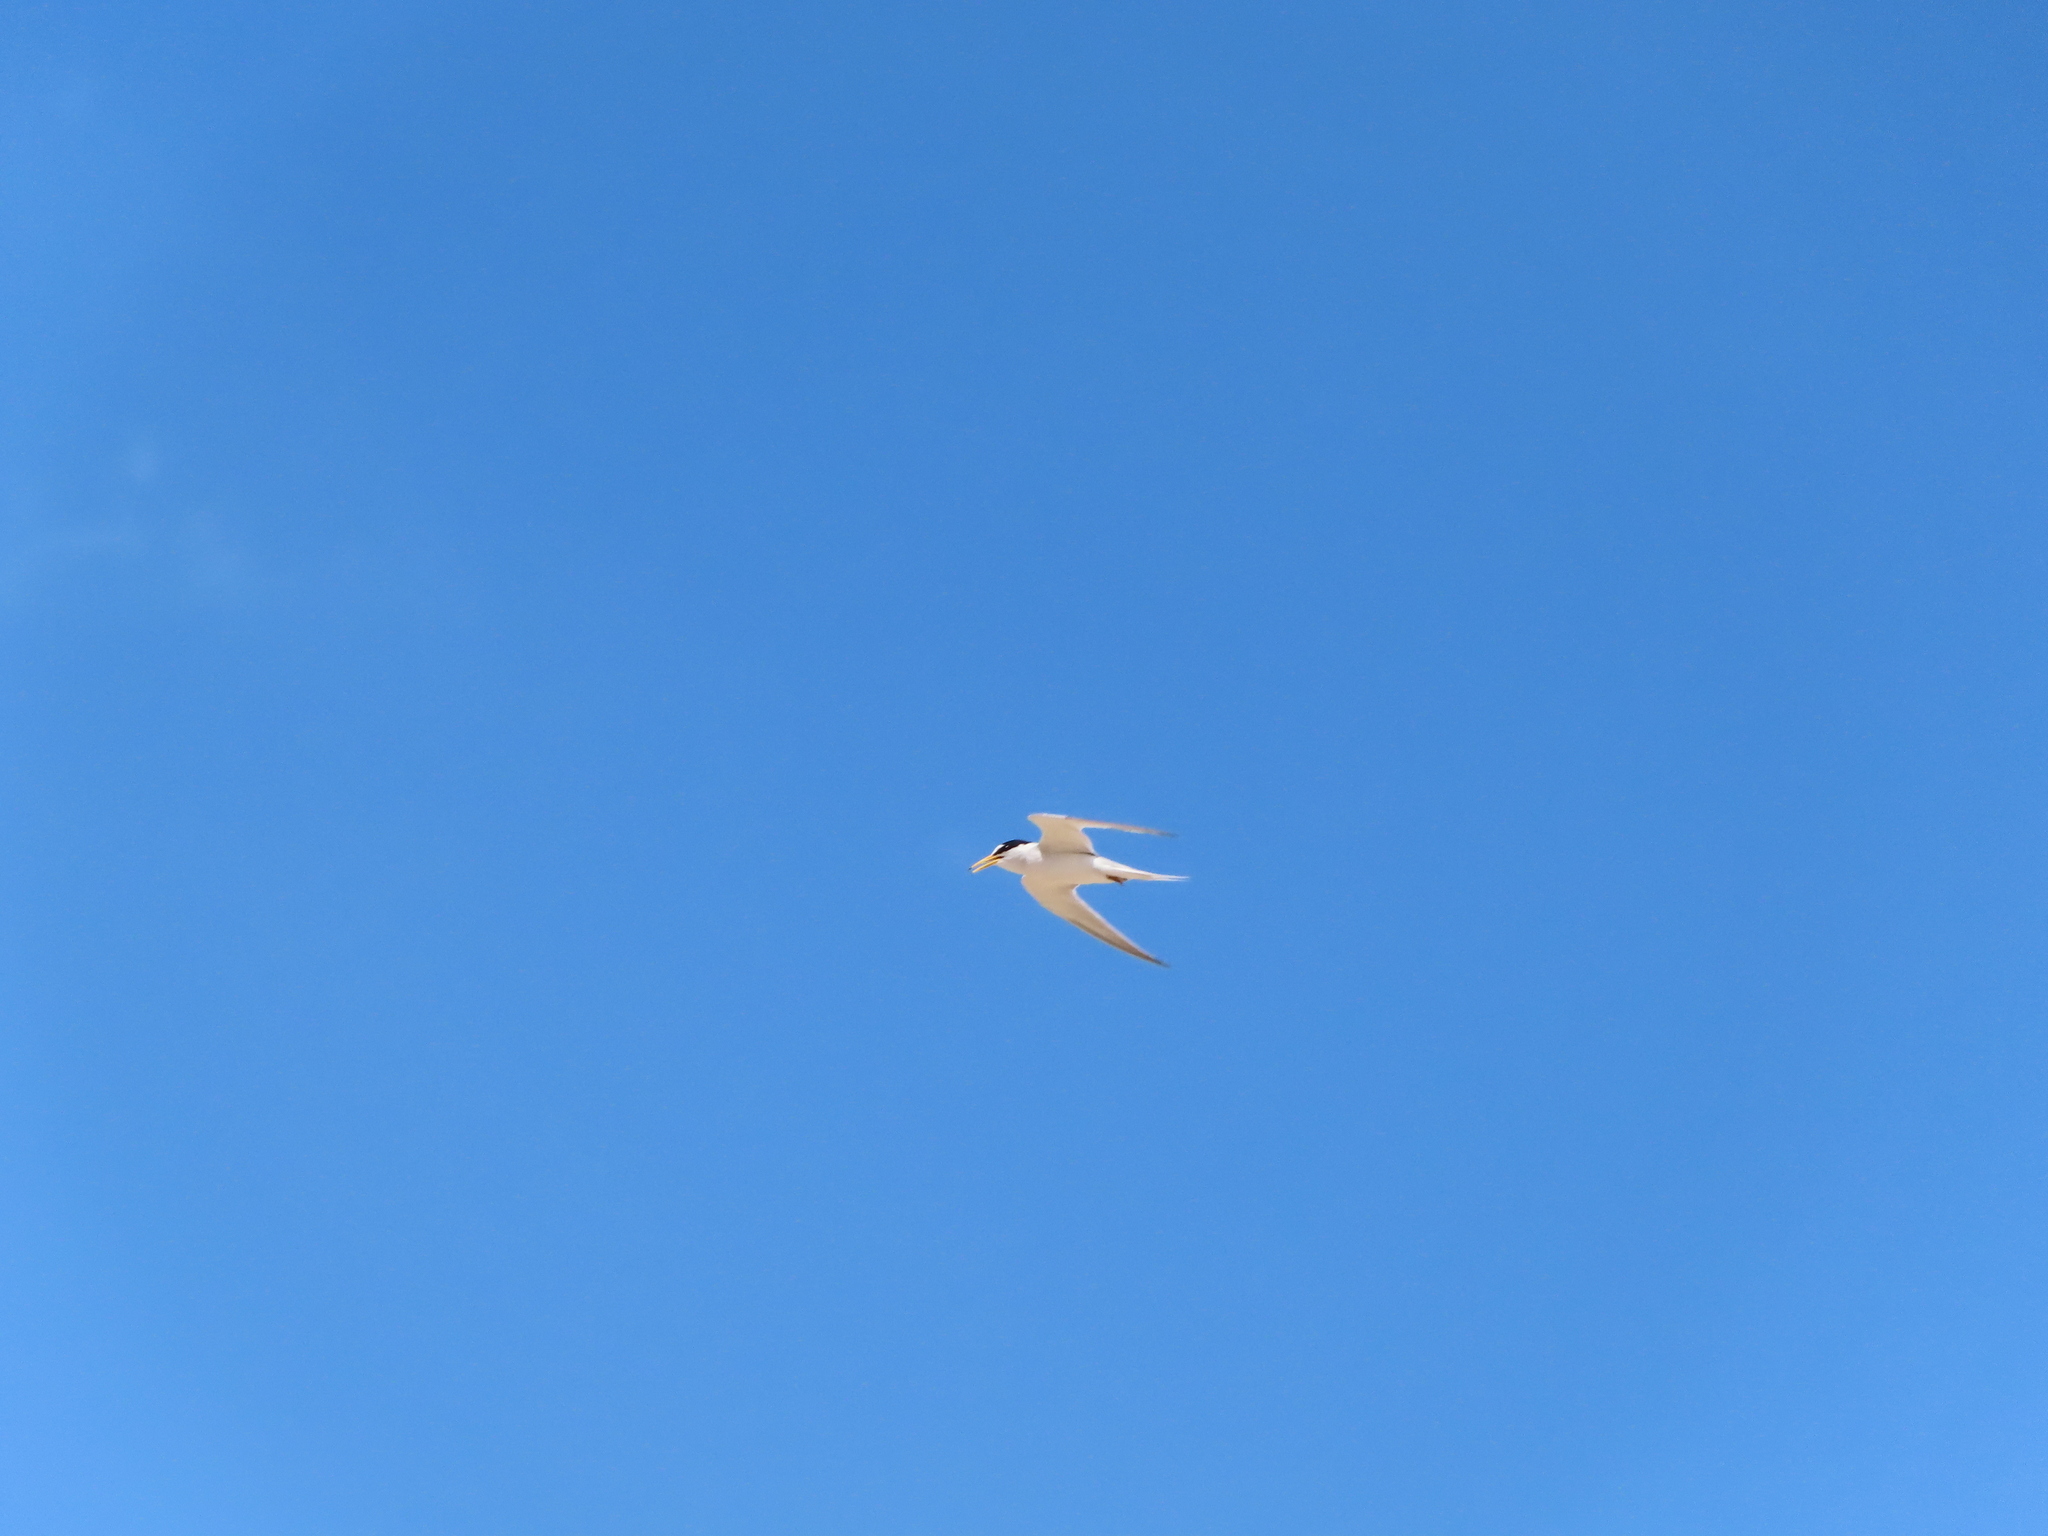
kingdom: Animalia
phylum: Chordata
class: Aves
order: Charadriiformes
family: Laridae
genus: Sternula
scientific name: Sternula antillarum
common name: Least tern
